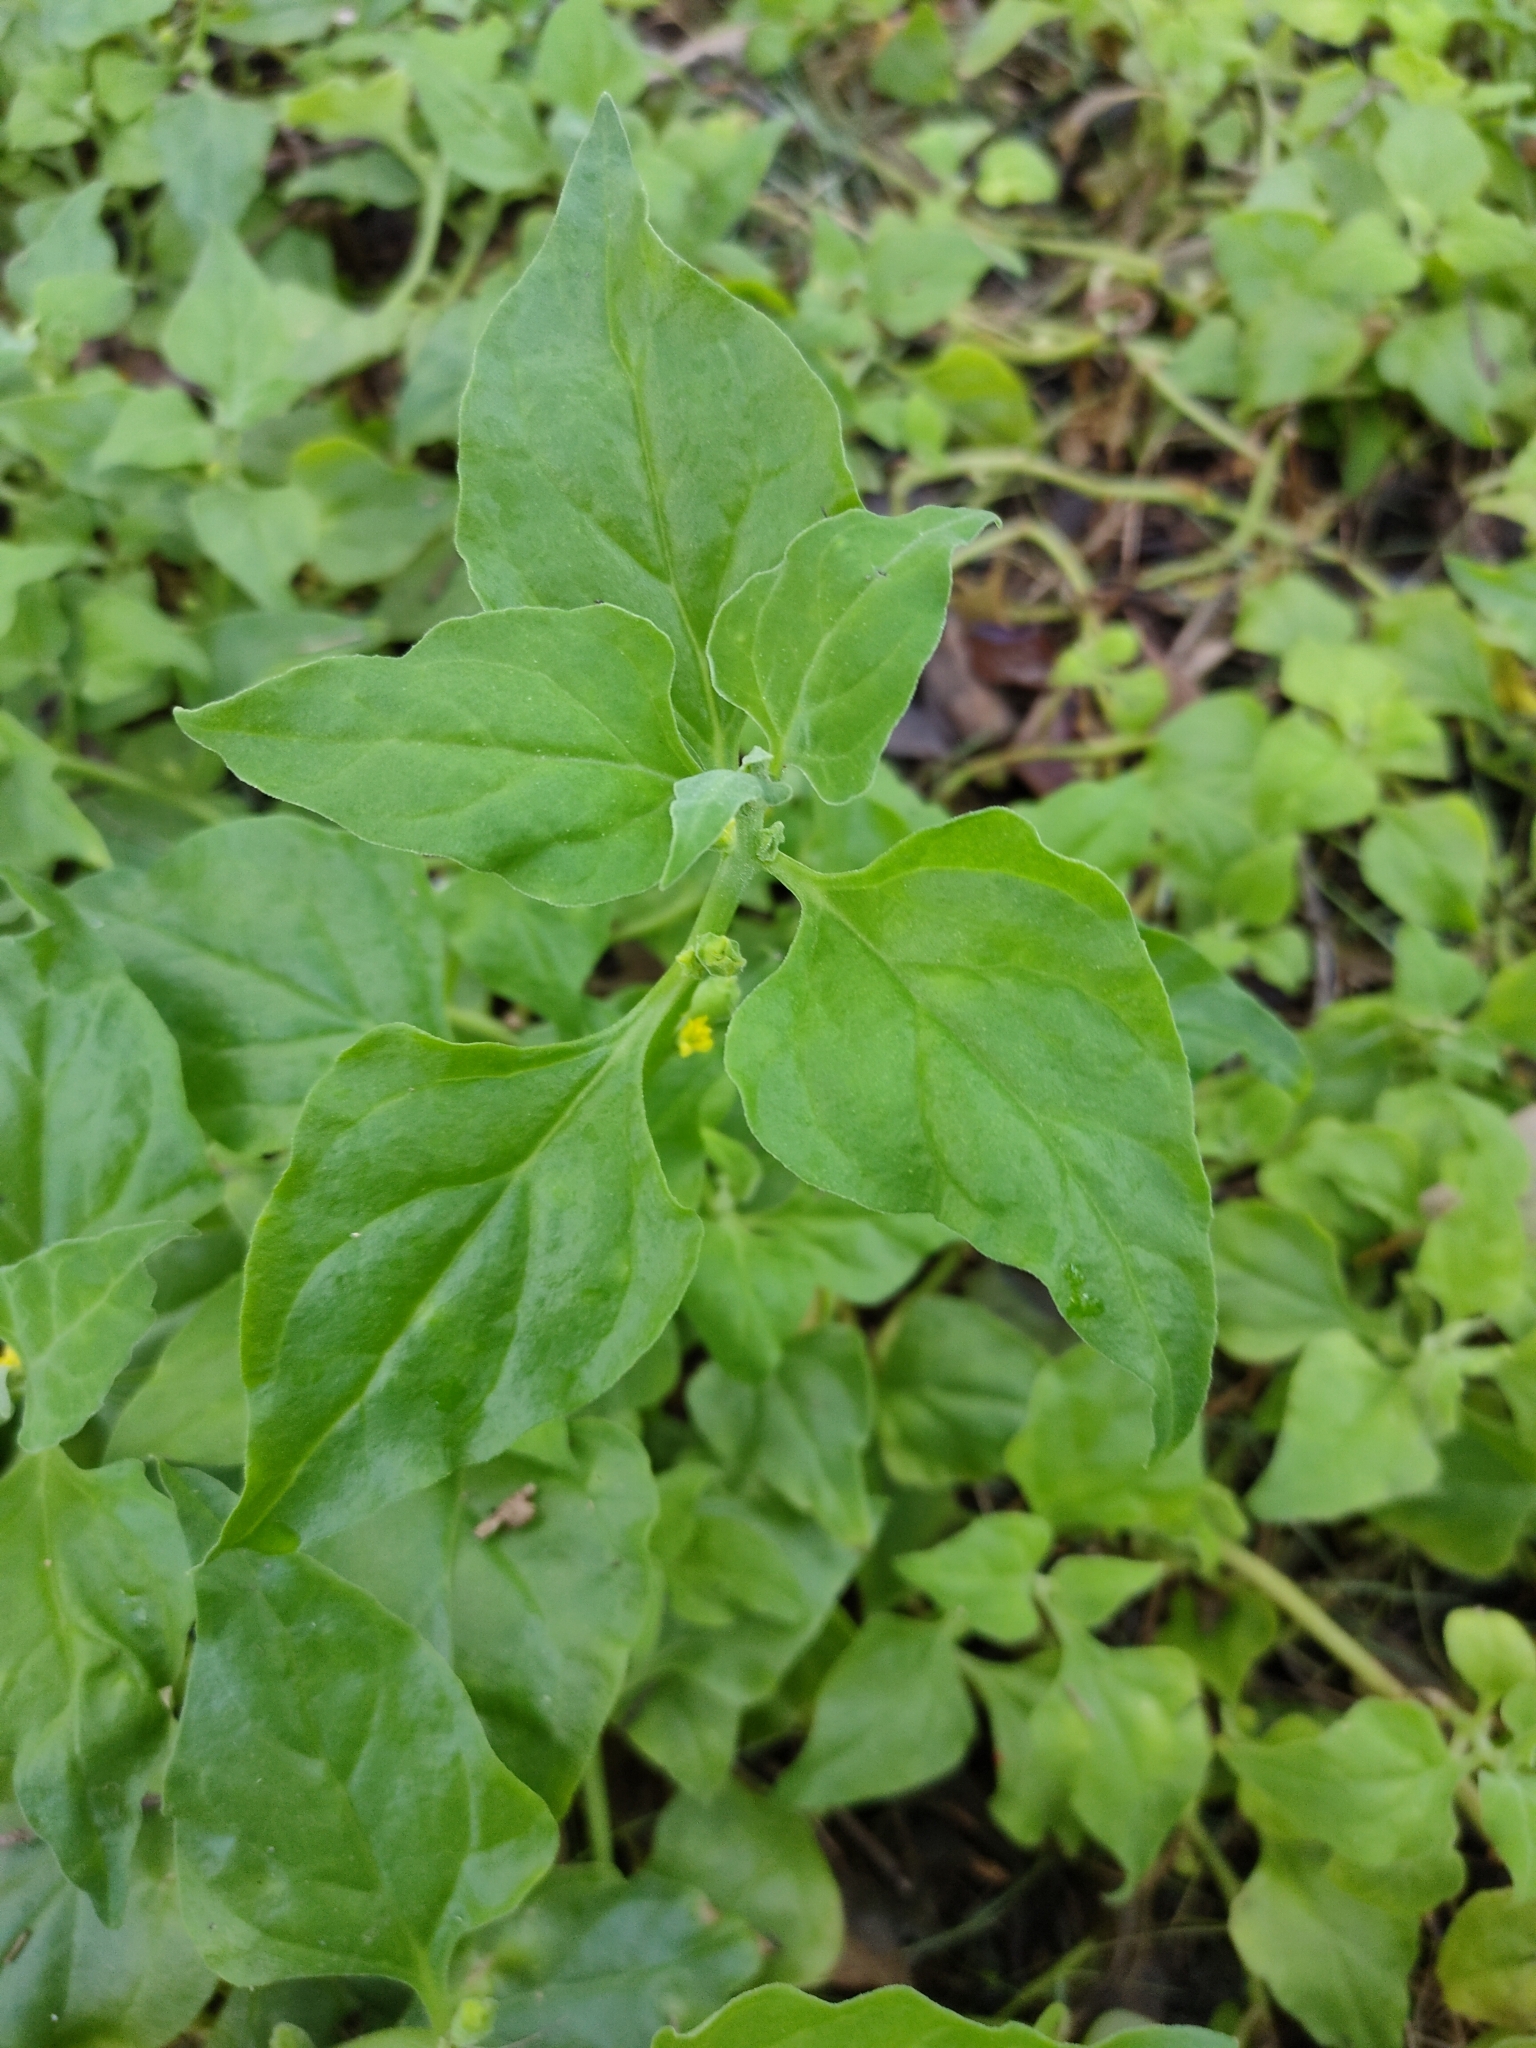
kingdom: Plantae
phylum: Tracheophyta
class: Magnoliopsida
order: Caryophyllales
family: Aizoaceae
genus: Tetragonia
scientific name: Tetragonia tetragonoides
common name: New zealand-spinach
